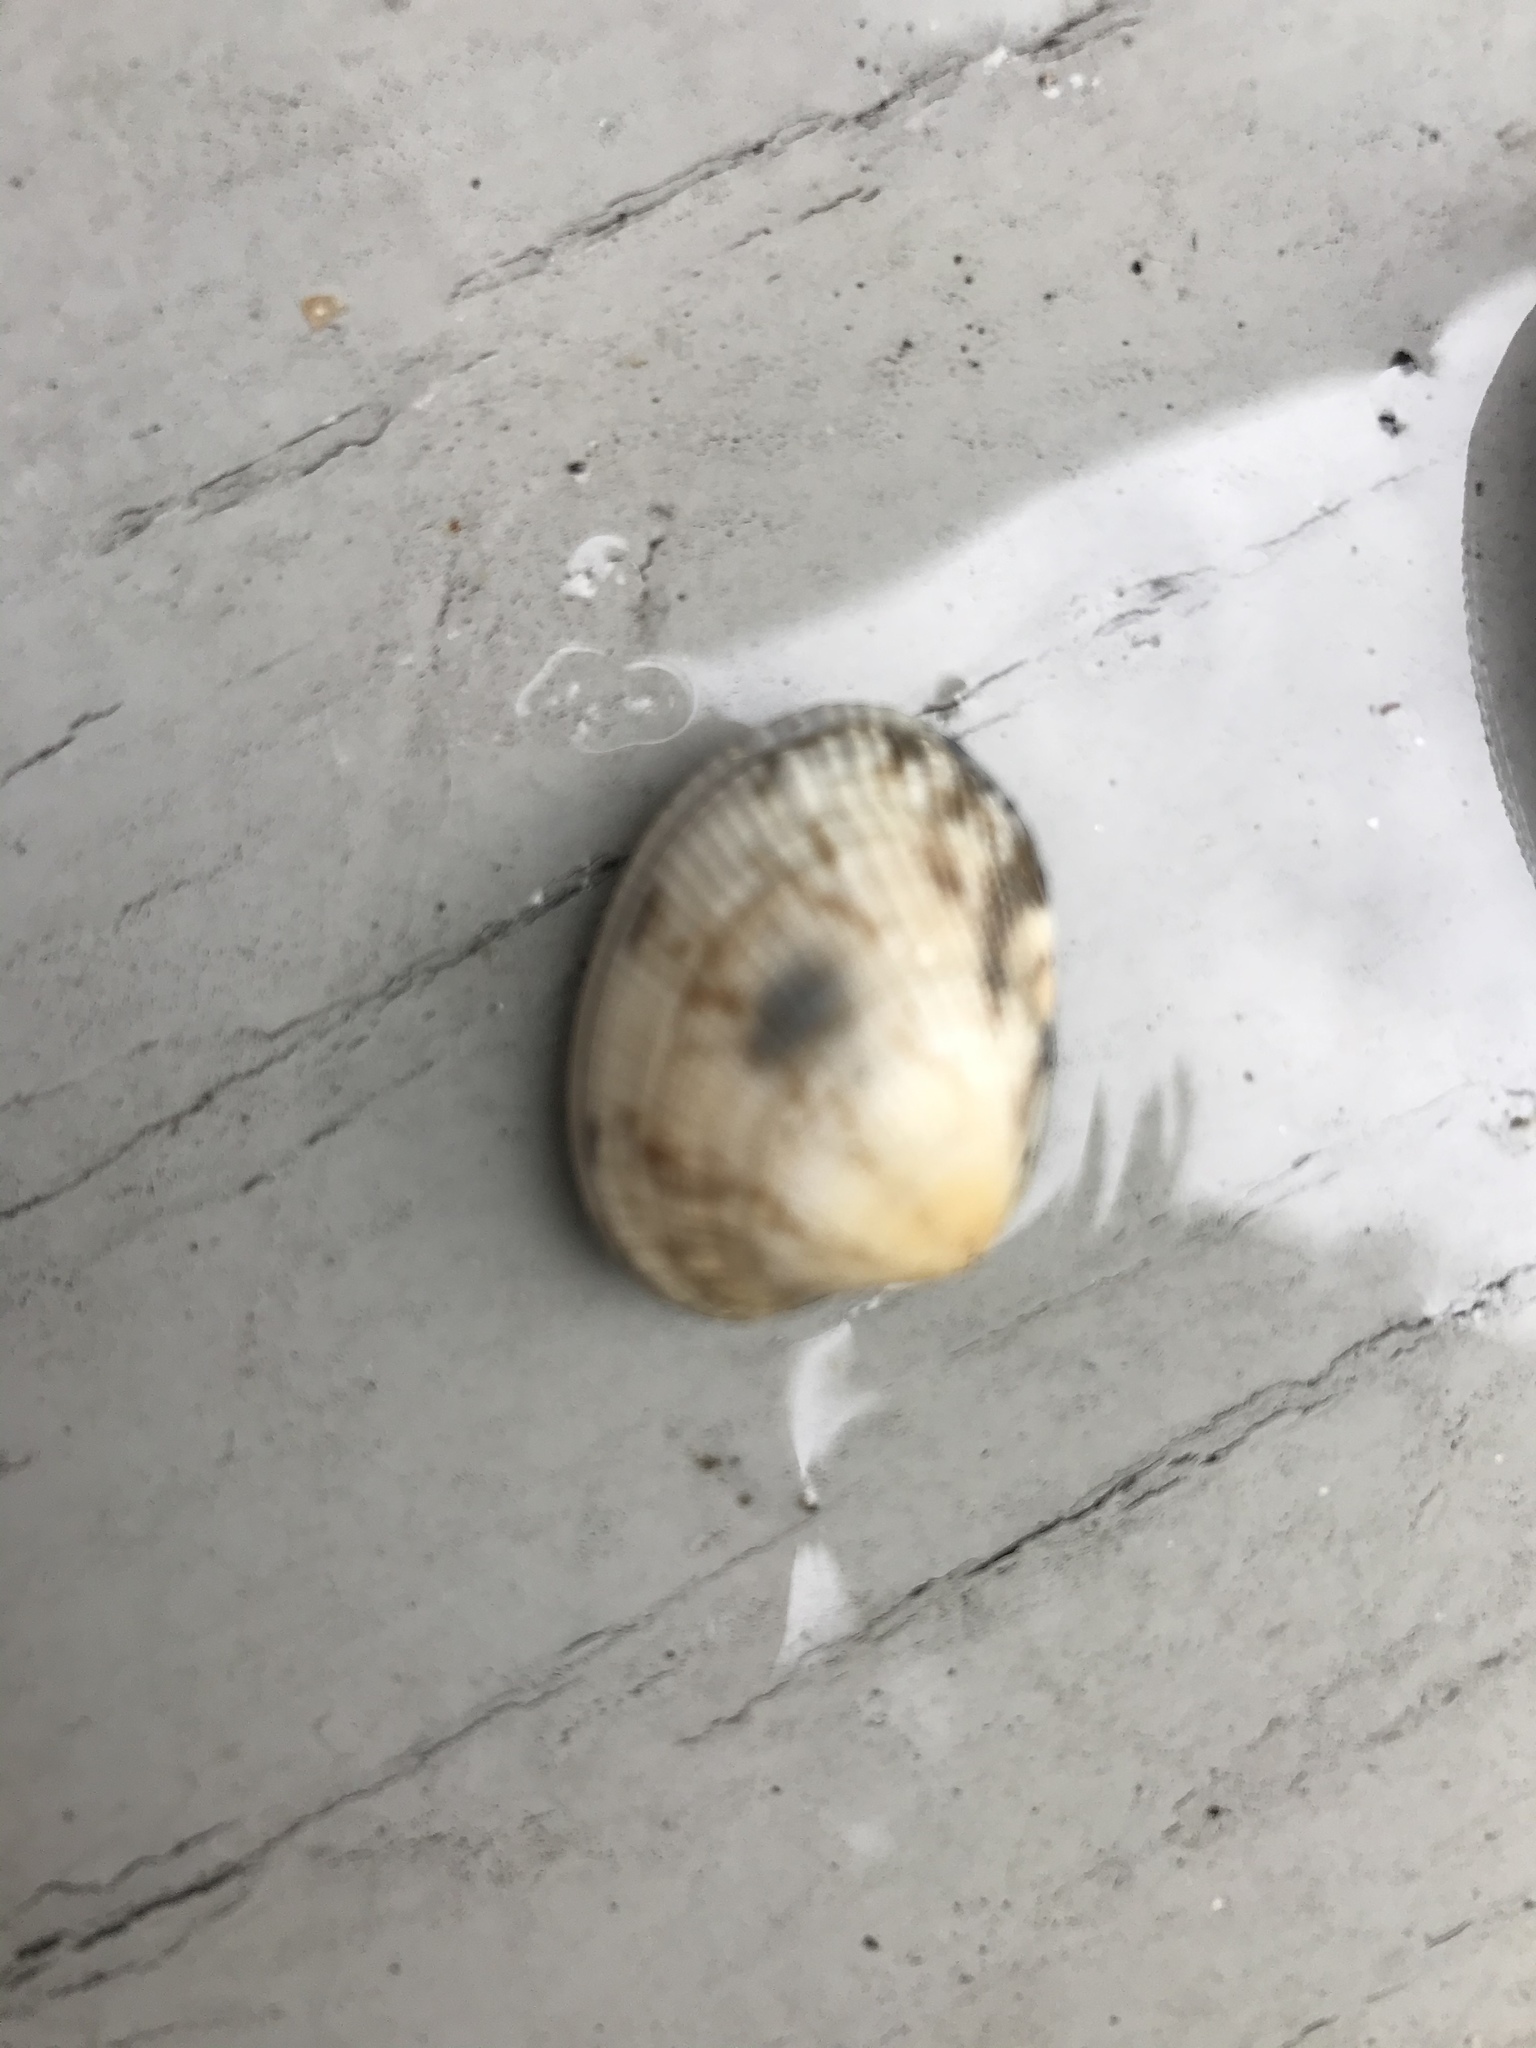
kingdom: Animalia
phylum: Mollusca
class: Bivalvia
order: Venerida
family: Veneridae
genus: Ruditapes
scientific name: Ruditapes philippinarum
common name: Manila clam
